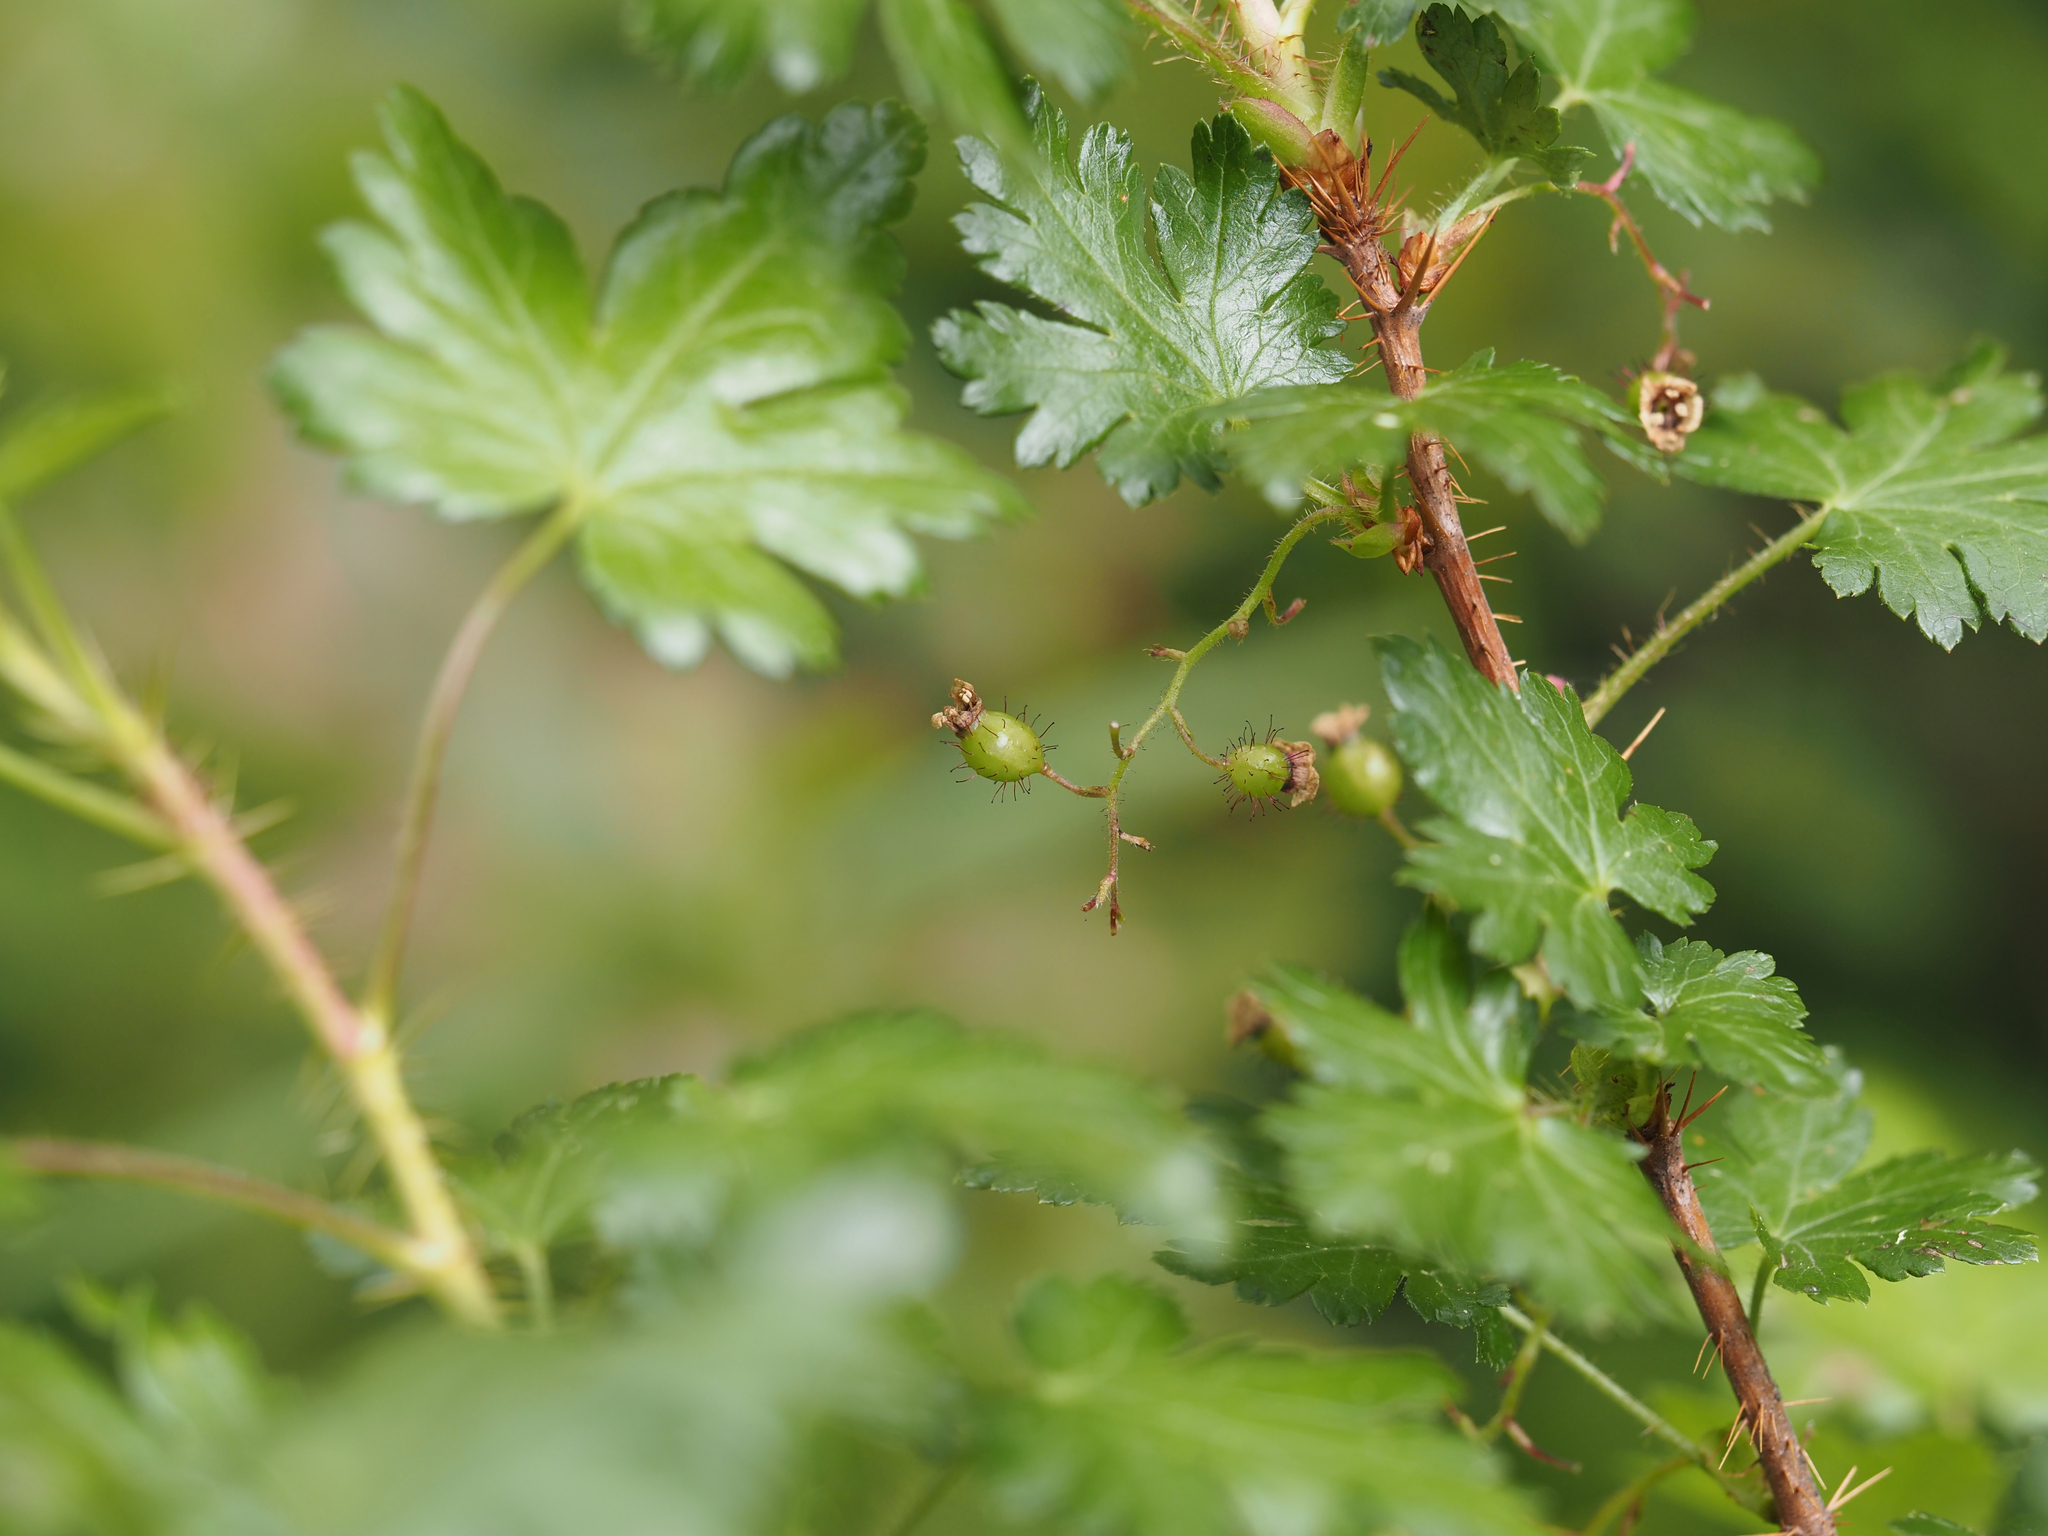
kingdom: Plantae
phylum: Tracheophyta
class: Magnoliopsida
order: Saxifragales
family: Grossulariaceae
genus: Ribes
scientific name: Ribes lacustre
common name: Black gooseberry
